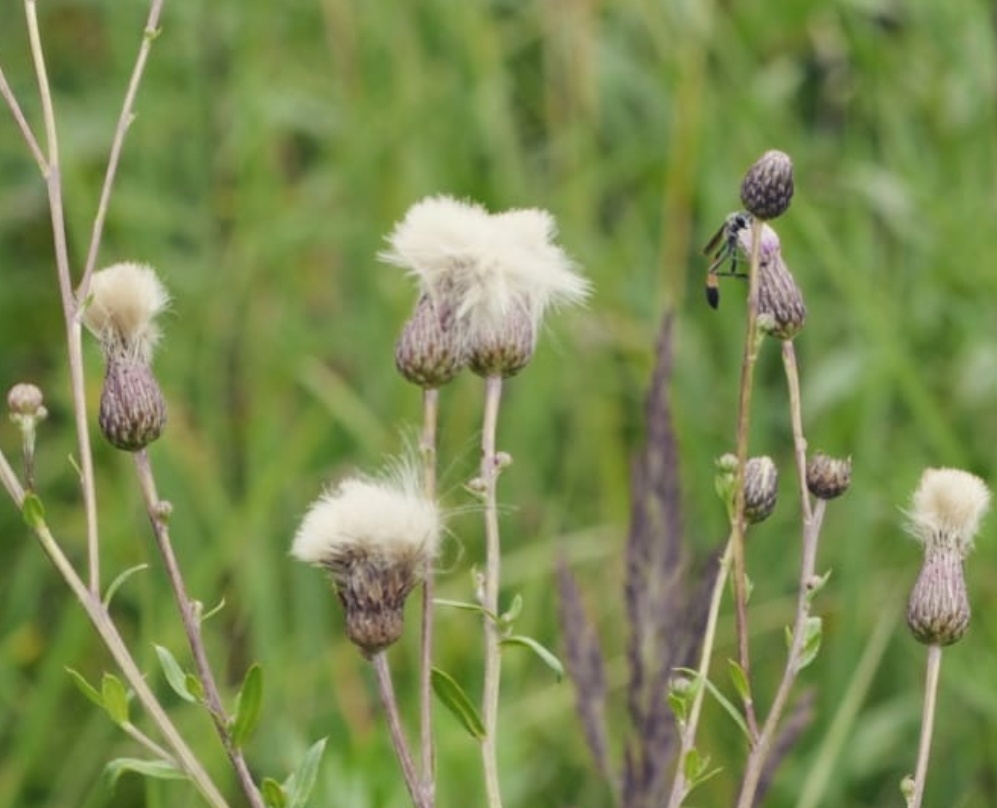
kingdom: Plantae
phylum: Tracheophyta
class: Magnoliopsida
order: Asterales
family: Asteraceae
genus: Cirsium
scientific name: Cirsium arvense
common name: Creeping thistle
